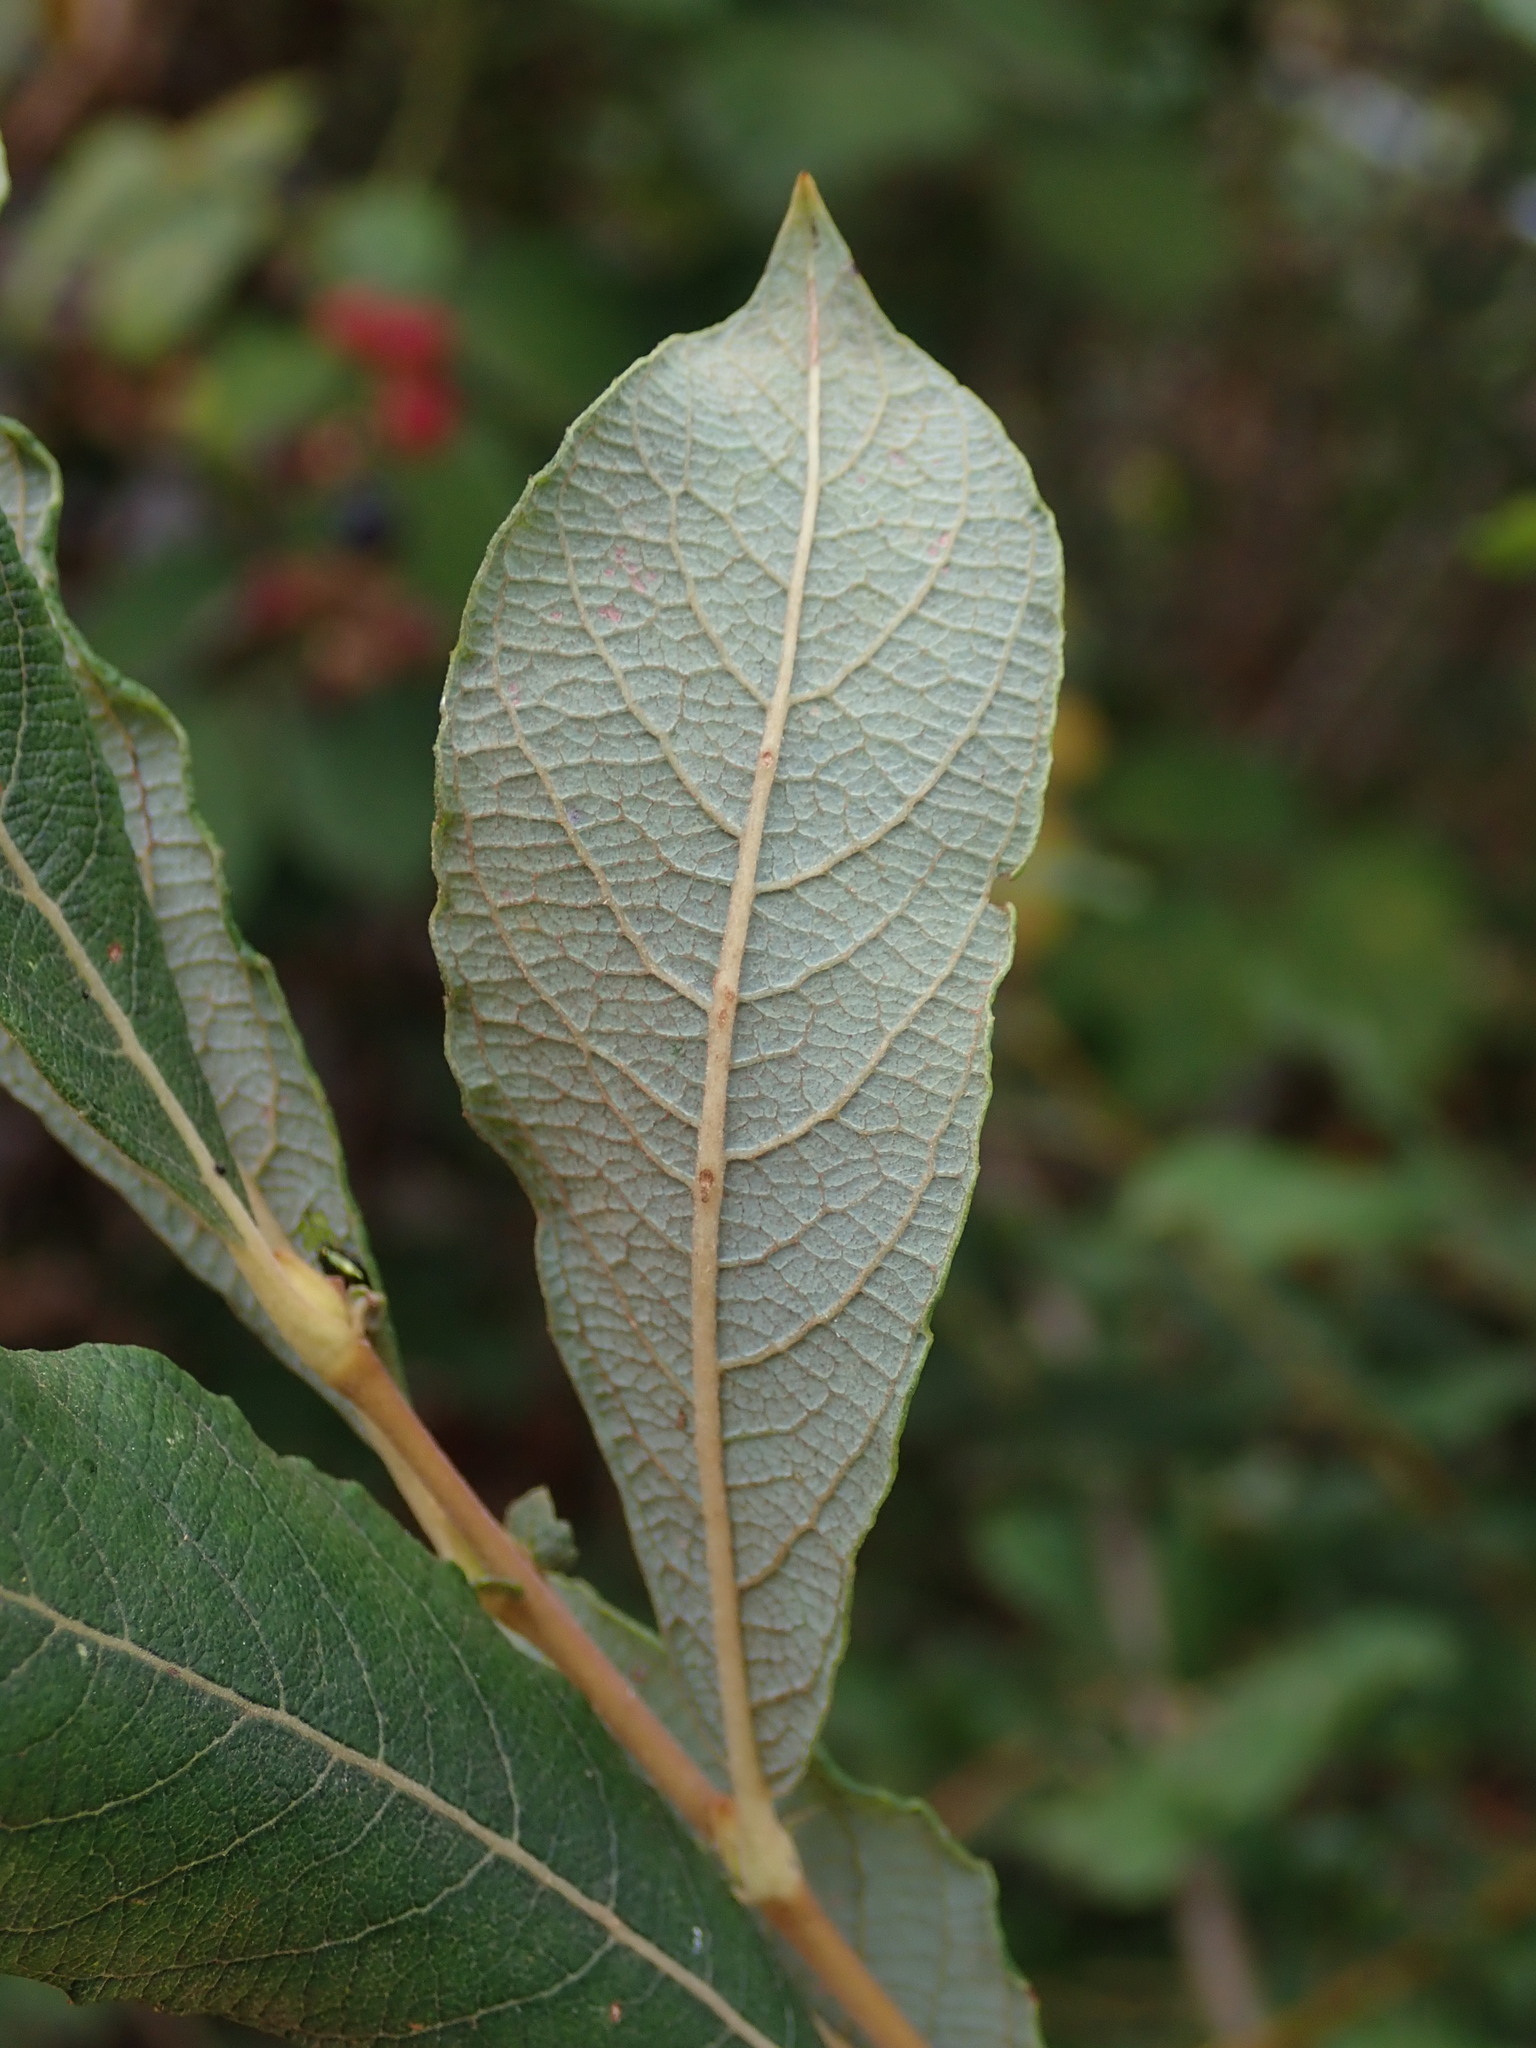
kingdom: Plantae
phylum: Tracheophyta
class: Magnoliopsida
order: Malpighiales
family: Salicaceae
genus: Salix
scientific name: Salix atrocinerea
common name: Rusty willow
